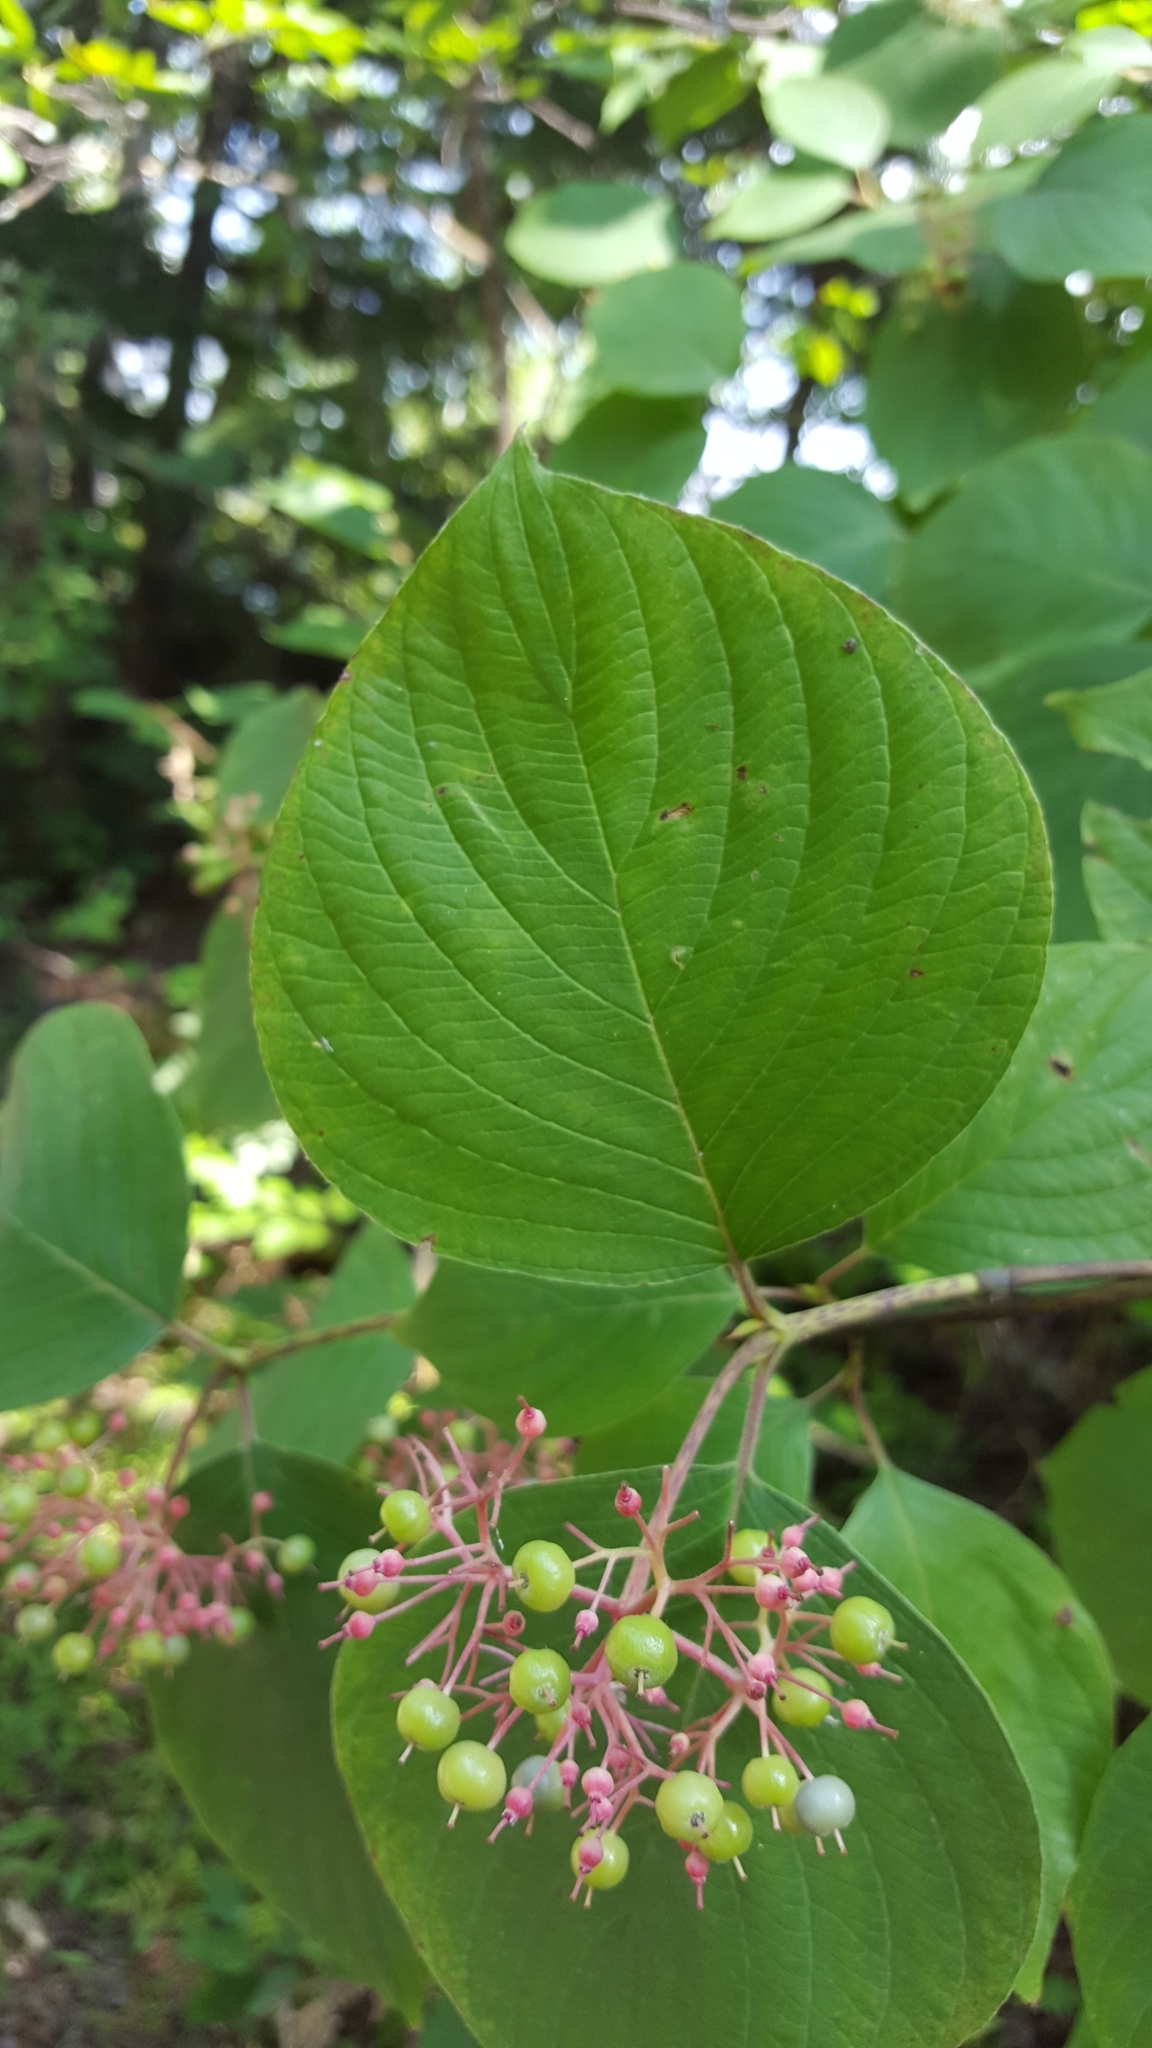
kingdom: Plantae
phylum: Tracheophyta
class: Magnoliopsida
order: Cornales
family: Cornaceae
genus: Cornus
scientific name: Cornus rugosa
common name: Round-leaf dogwood
